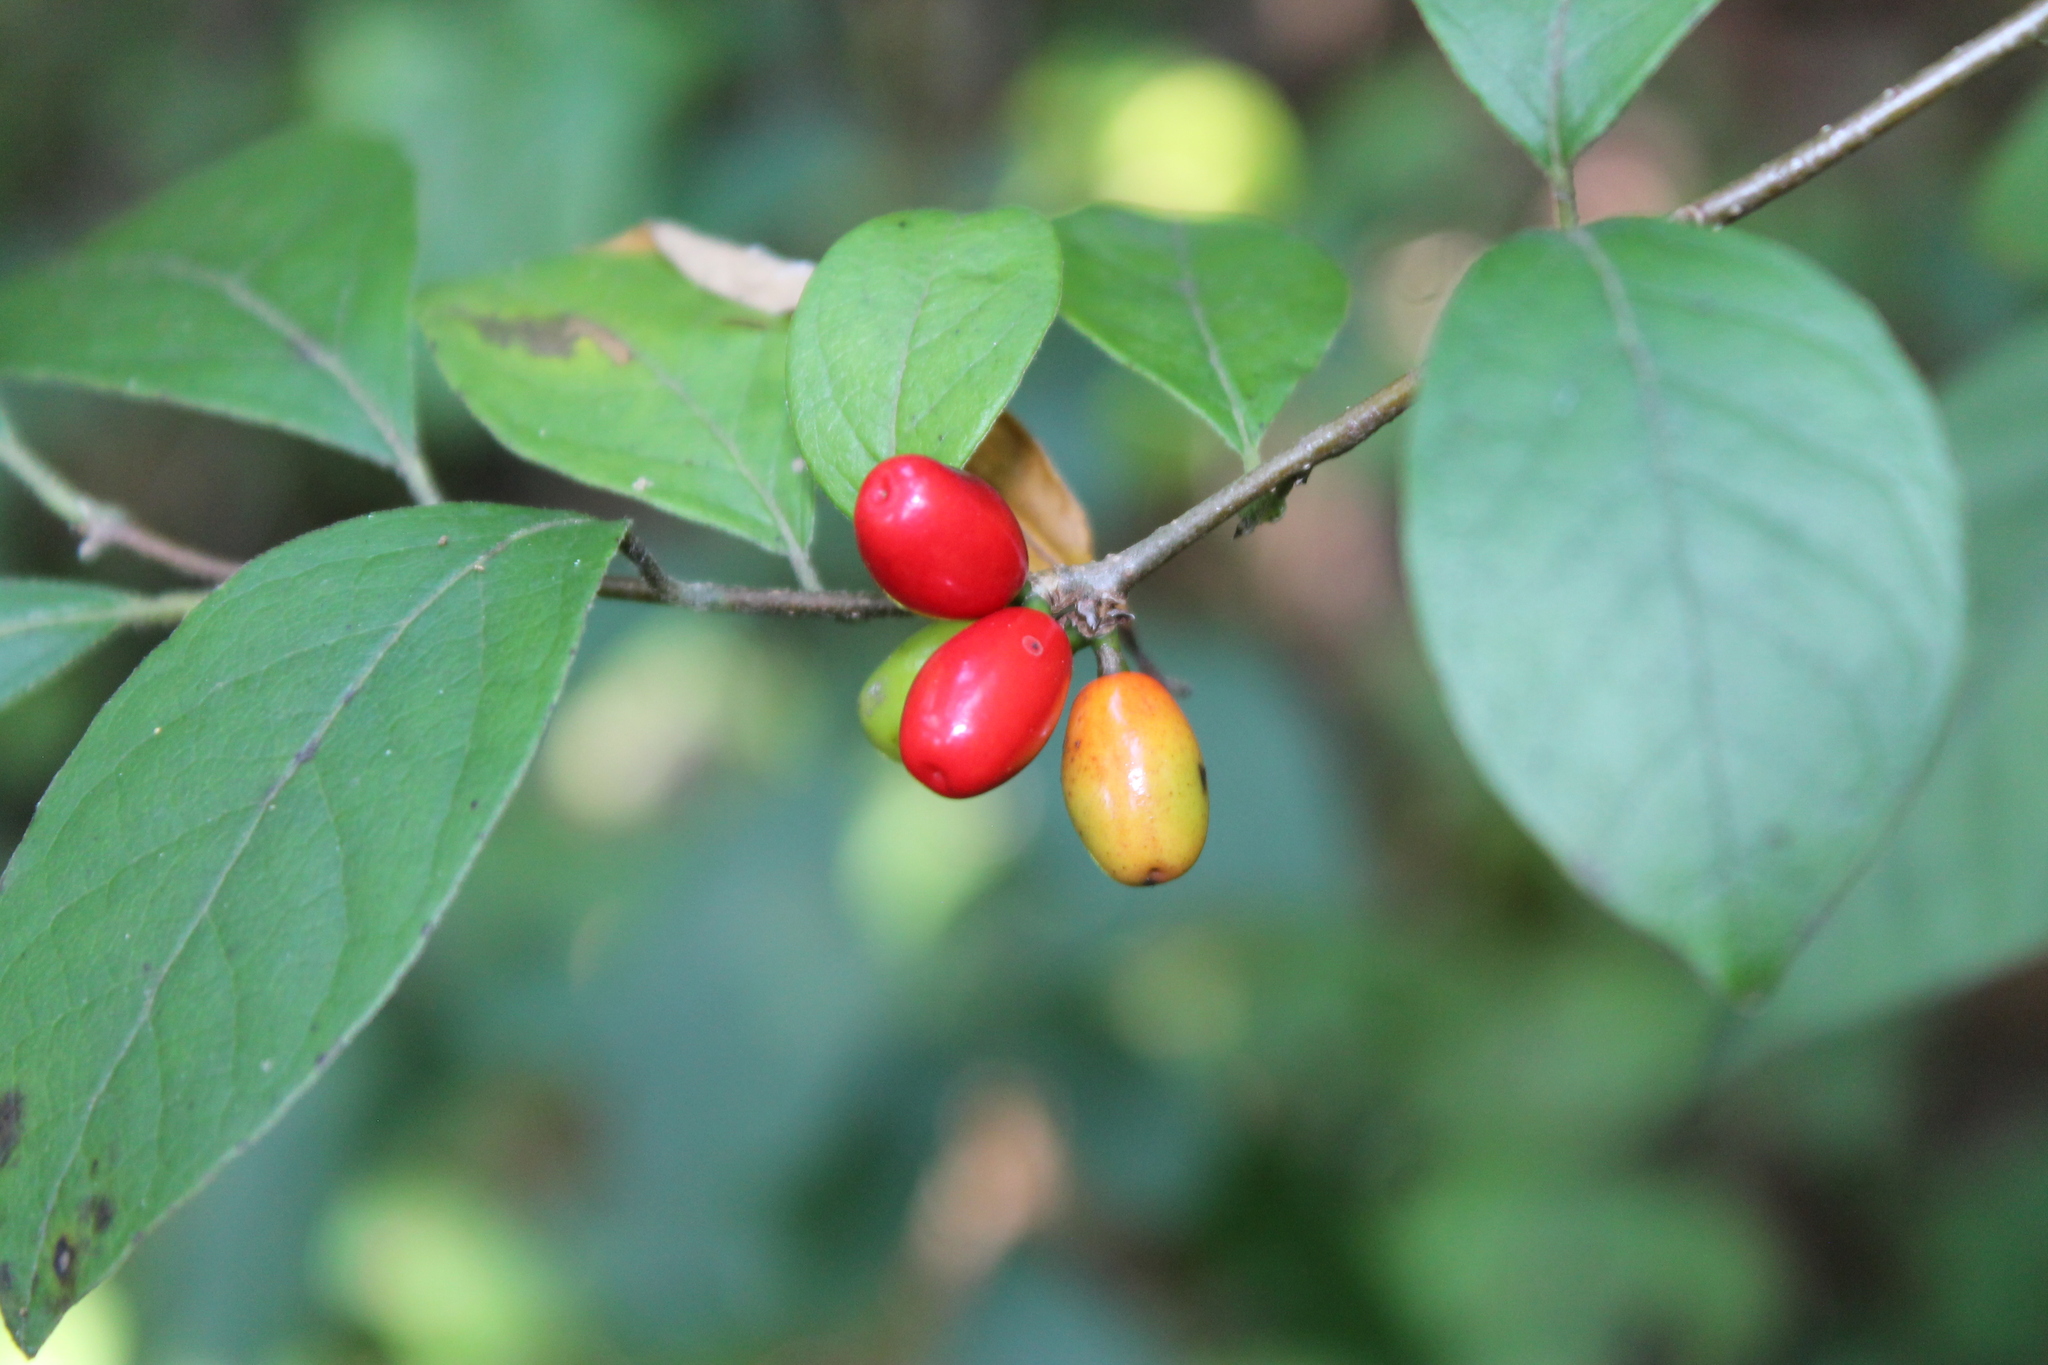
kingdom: Plantae
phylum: Tracheophyta
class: Magnoliopsida
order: Laurales
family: Lauraceae
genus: Lindera
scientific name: Lindera benzoin
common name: Spicebush
